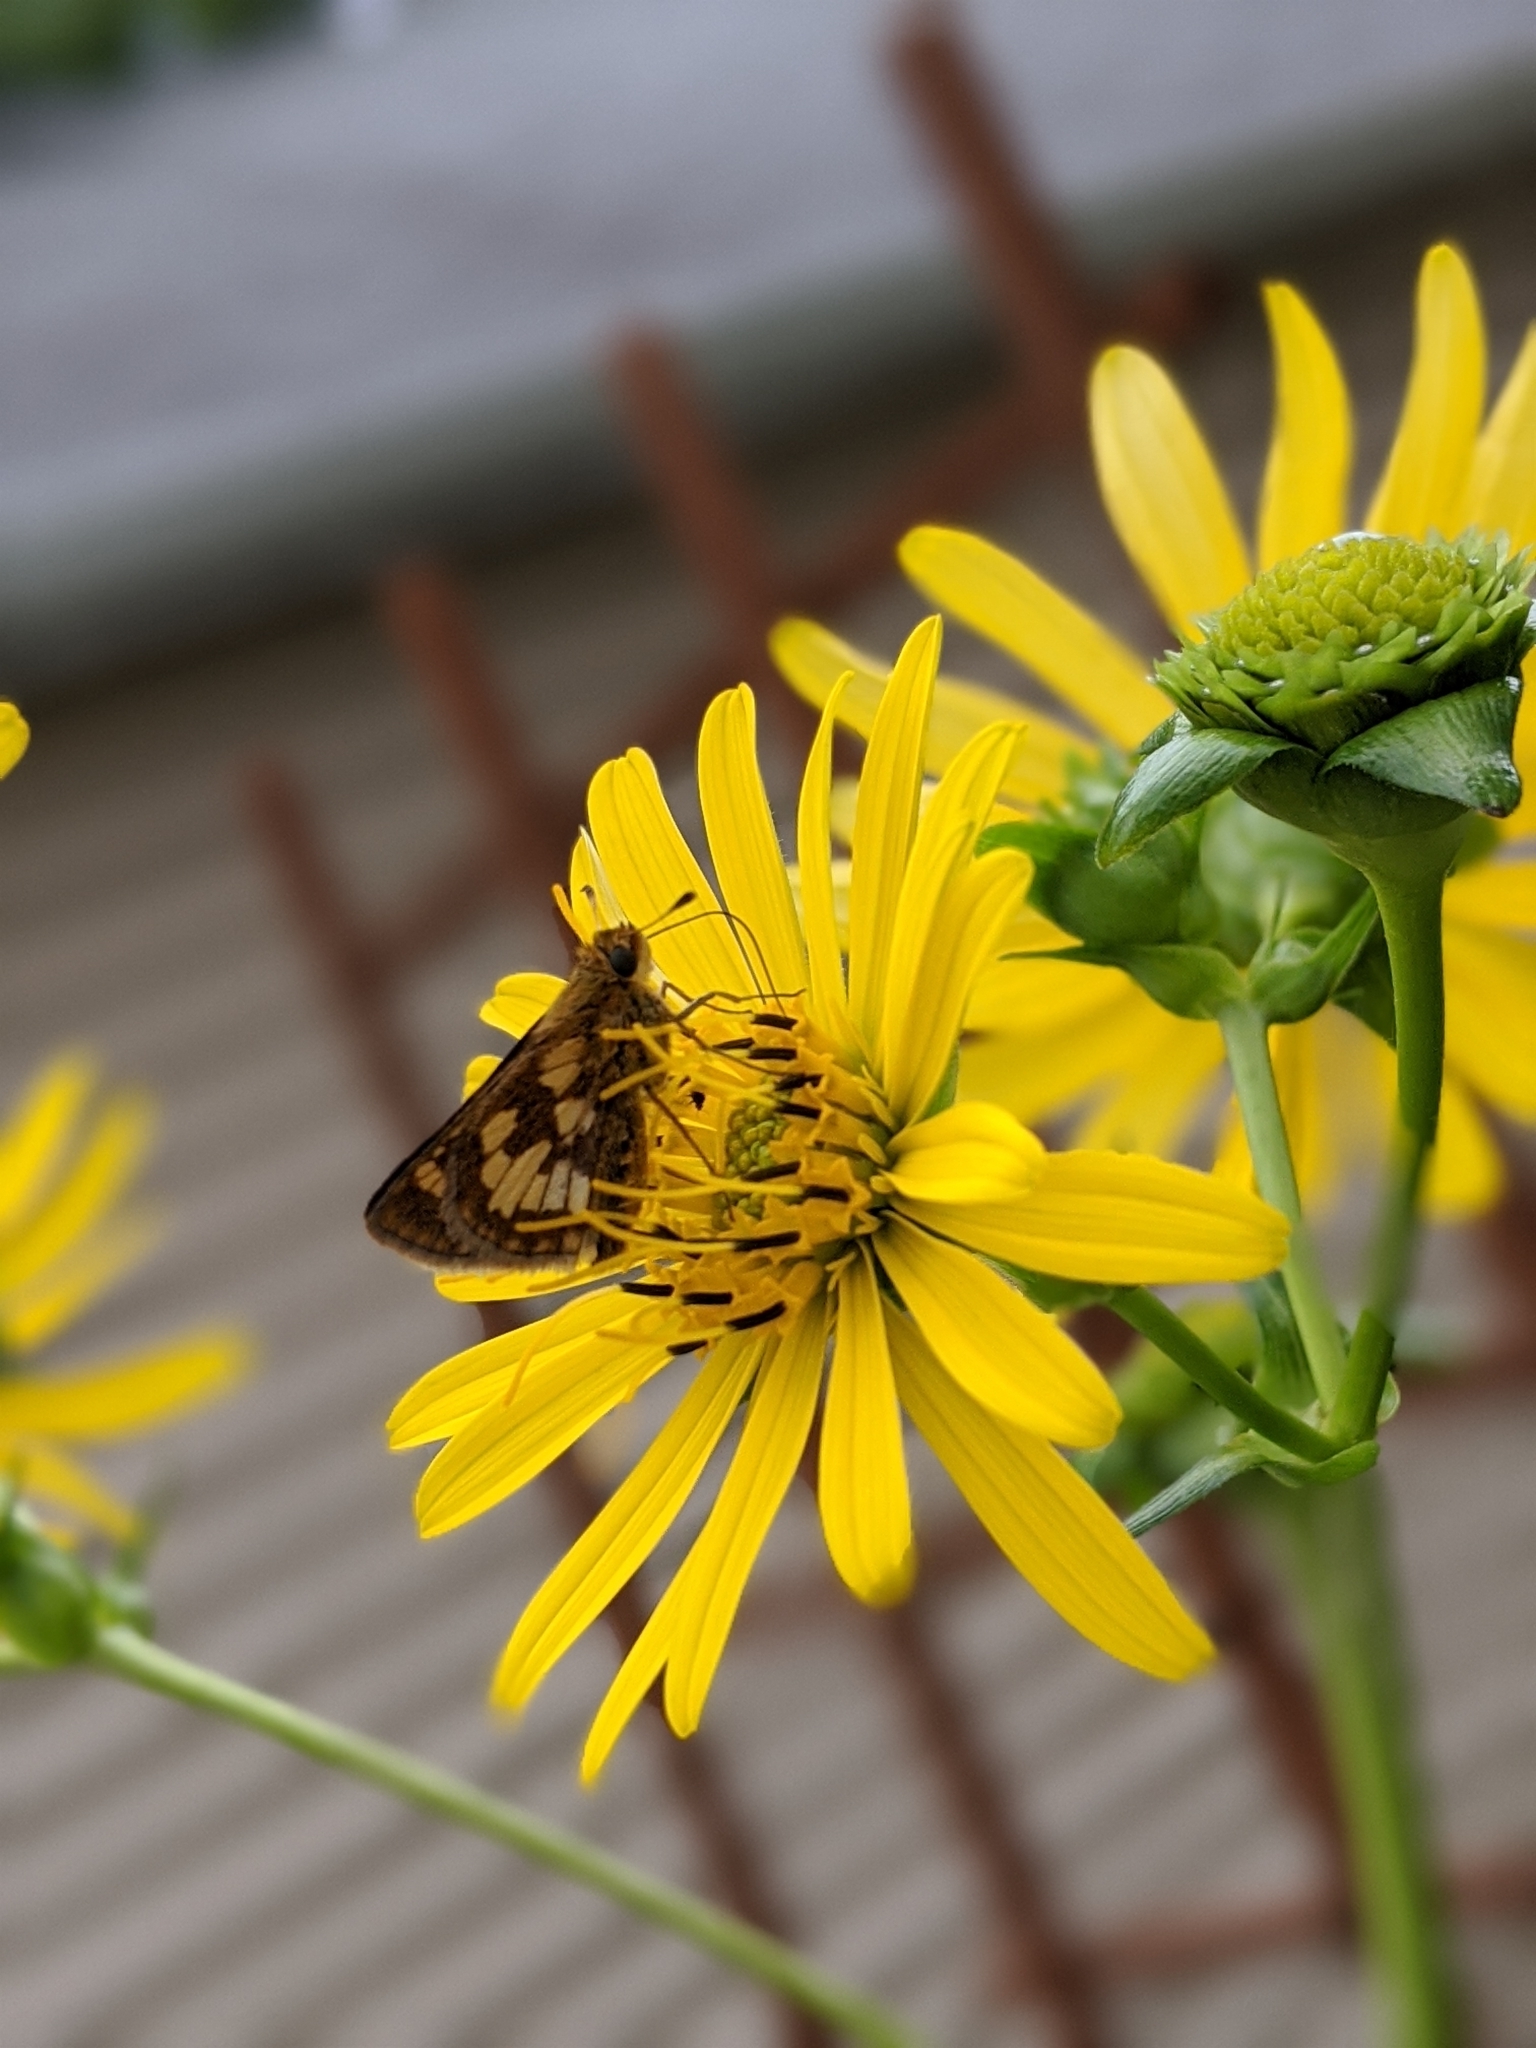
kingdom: Animalia
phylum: Arthropoda
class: Insecta
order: Lepidoptera
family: Hesperiidae
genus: Polites
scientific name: Polites coras
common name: Peck's skipper
